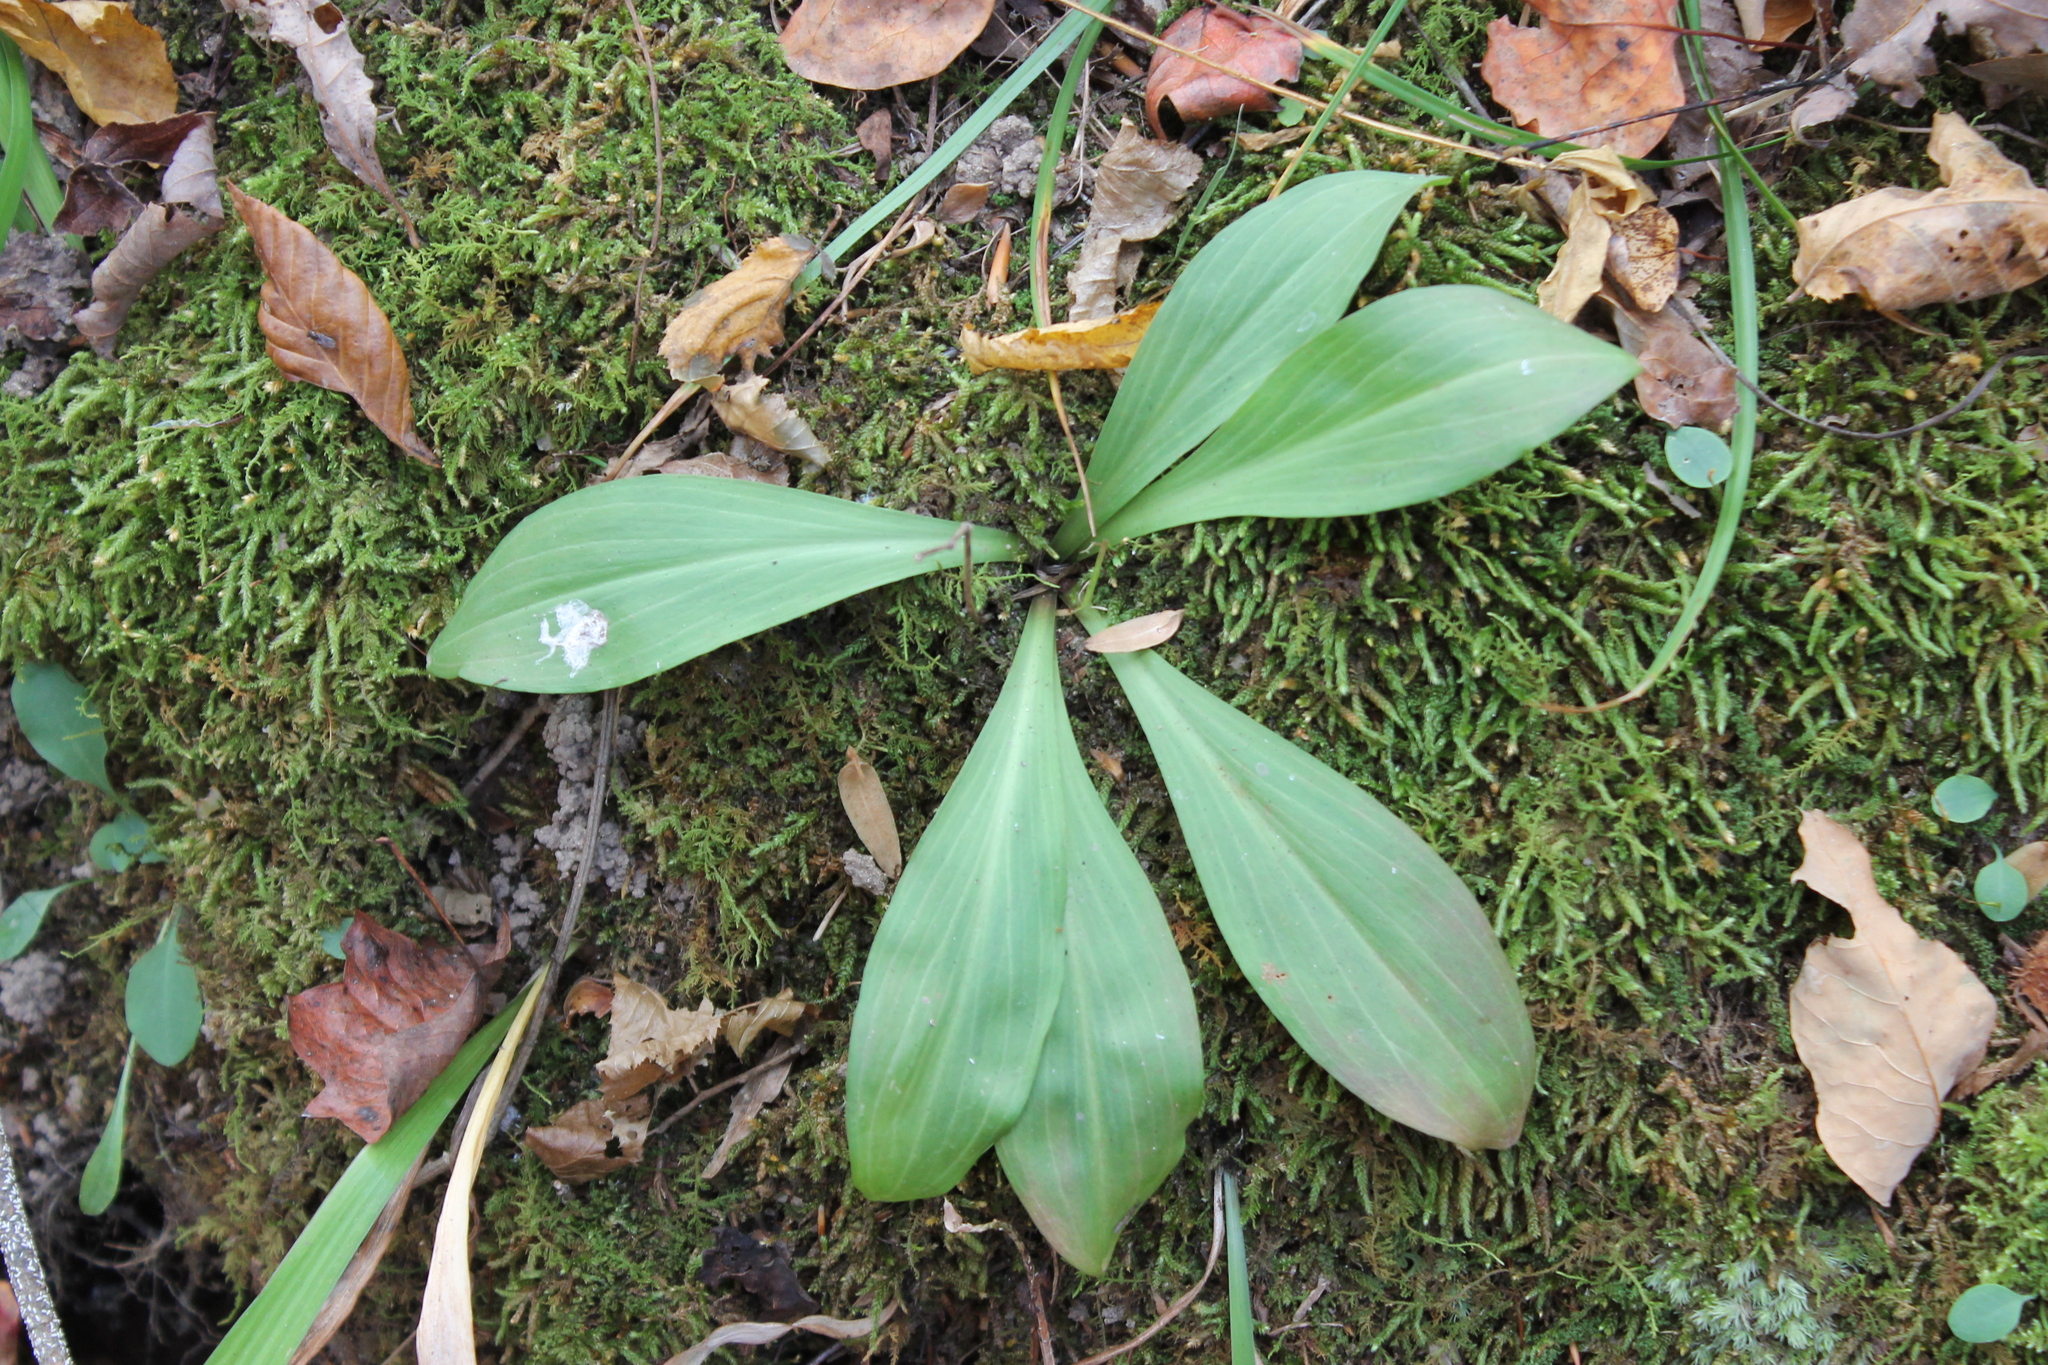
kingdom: Plantae
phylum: Tracheophyta
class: Liliopsida
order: Liliales
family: Melanthiaceae
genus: Chamaelirium
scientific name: Chamaelirium luteum
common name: Fairy-wand
